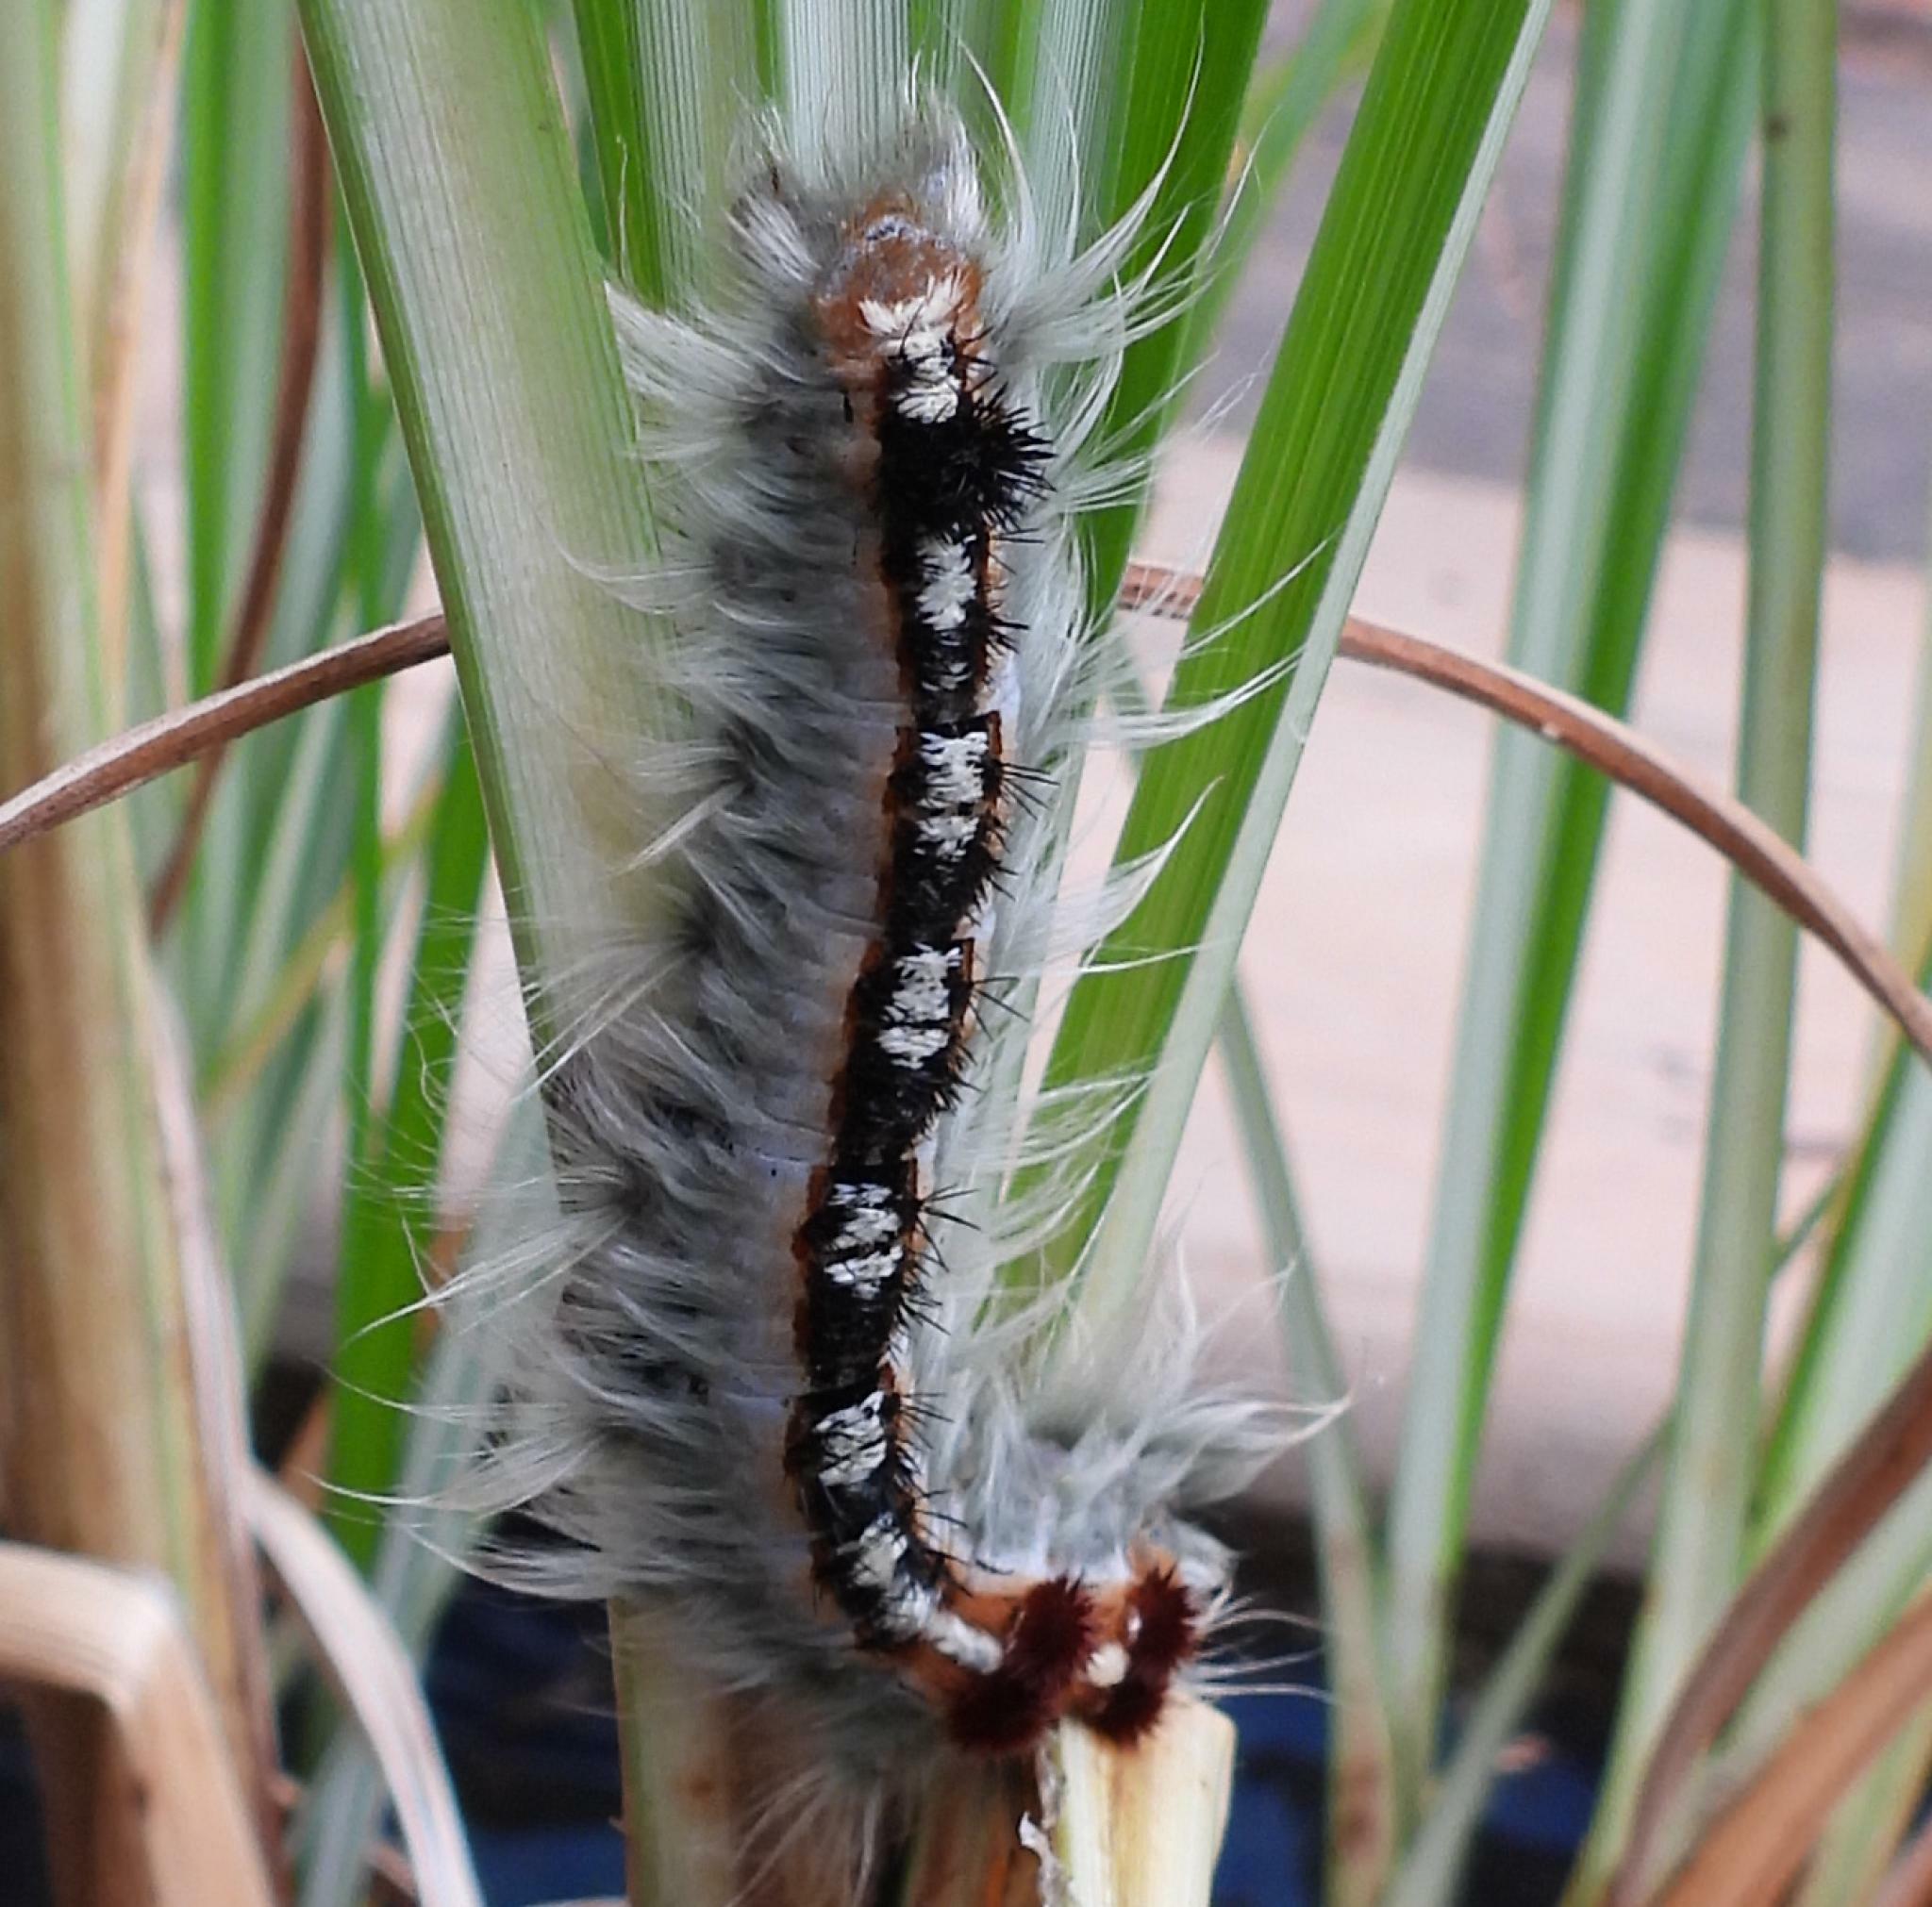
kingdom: Animalia
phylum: Arthropoda
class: Insecta
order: Lepidoptera
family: Lasiocampidae
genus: Eutricha
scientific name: Eutricha obscura
